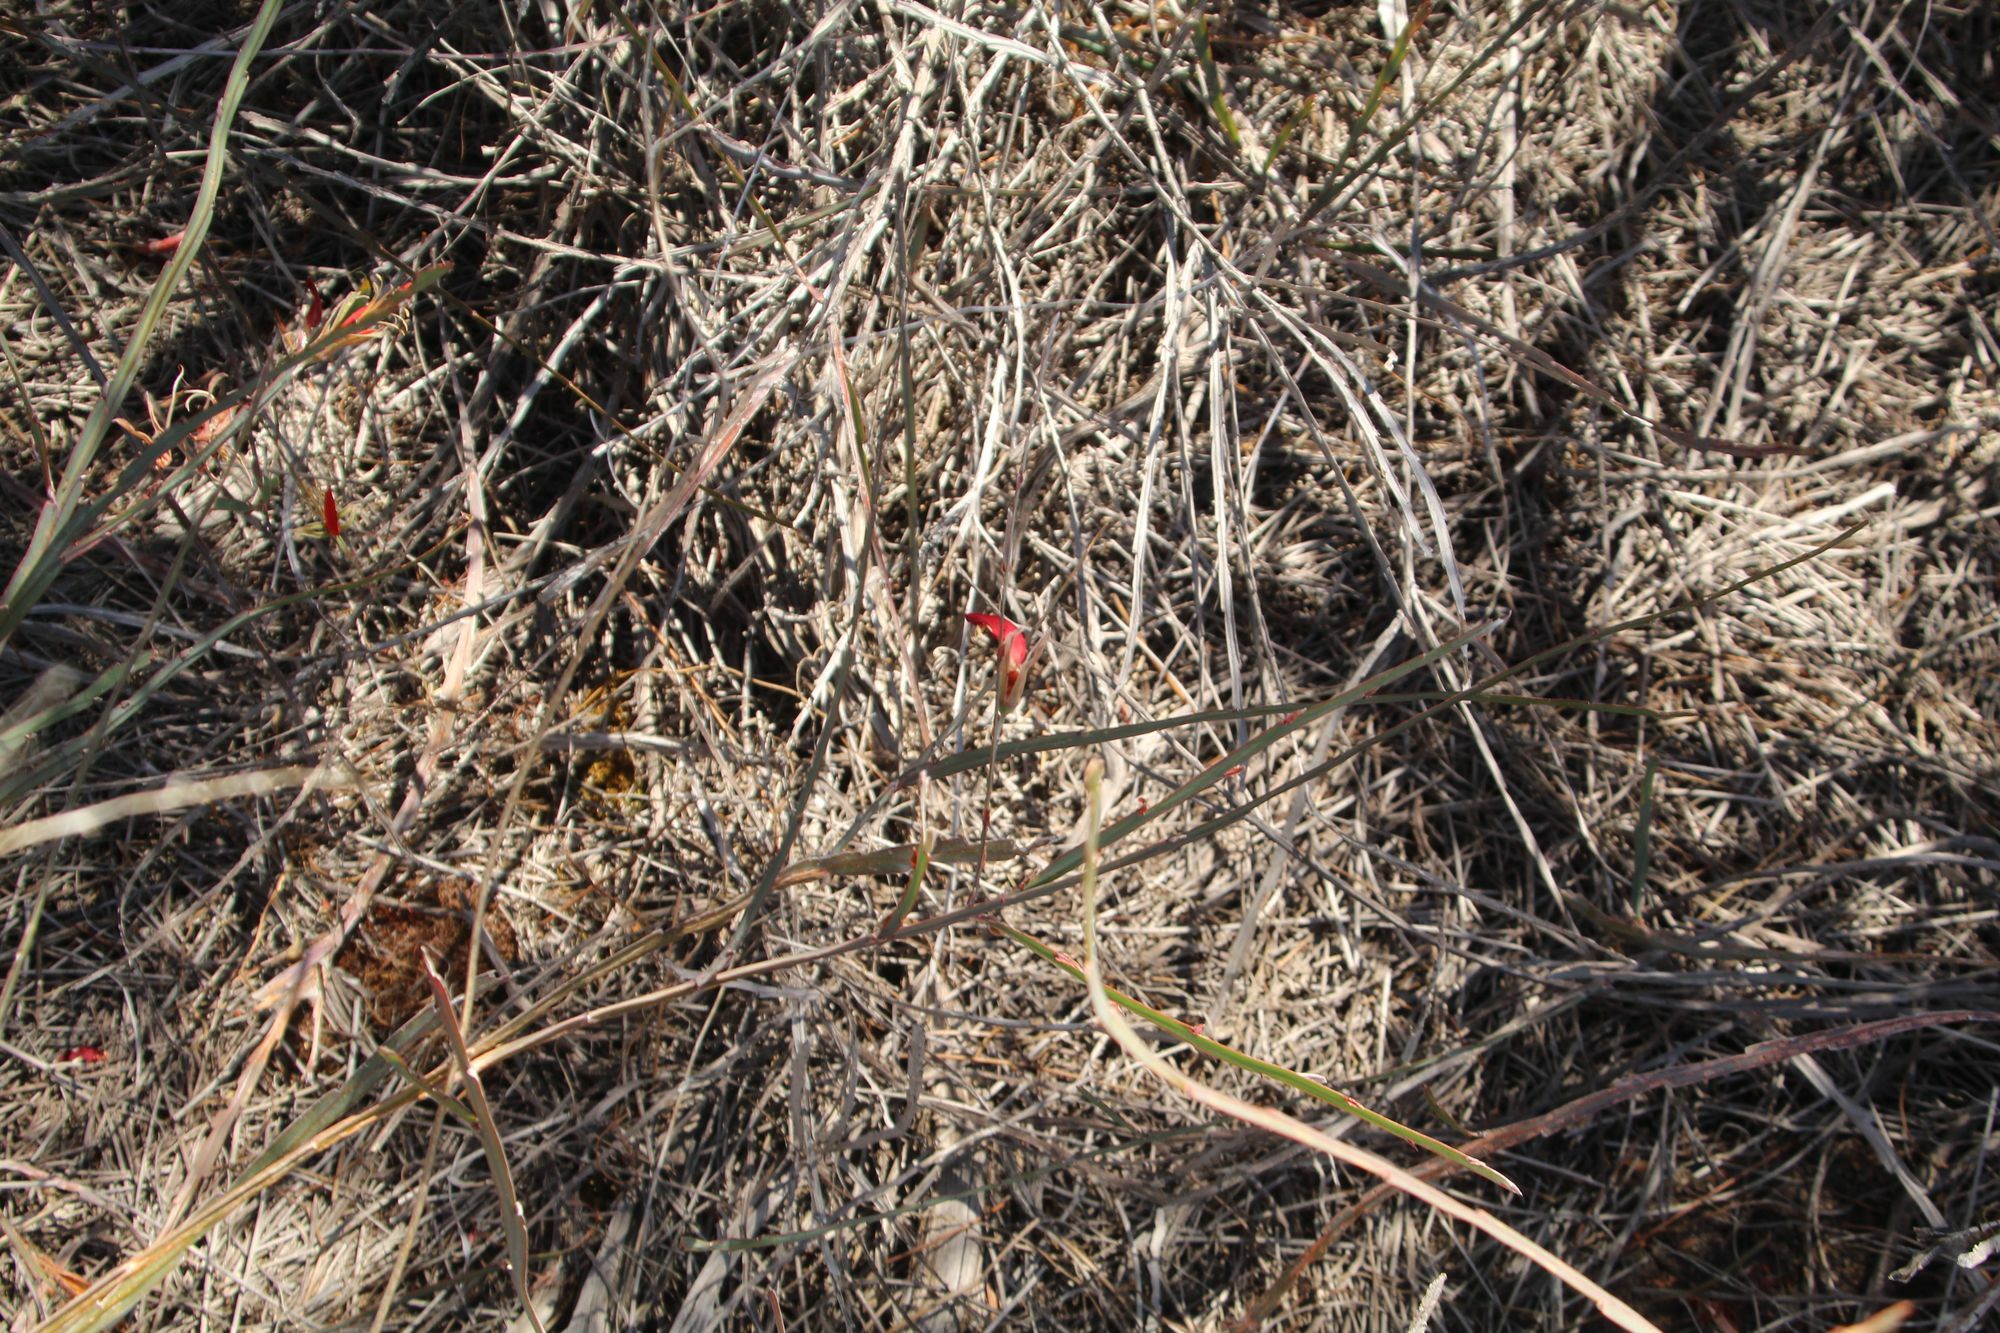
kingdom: Plantae
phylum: Tracheophyta
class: Magnoliopsida
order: Fabales
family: Fabaceae
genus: Leptosema
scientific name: Leptosema aphyllum
